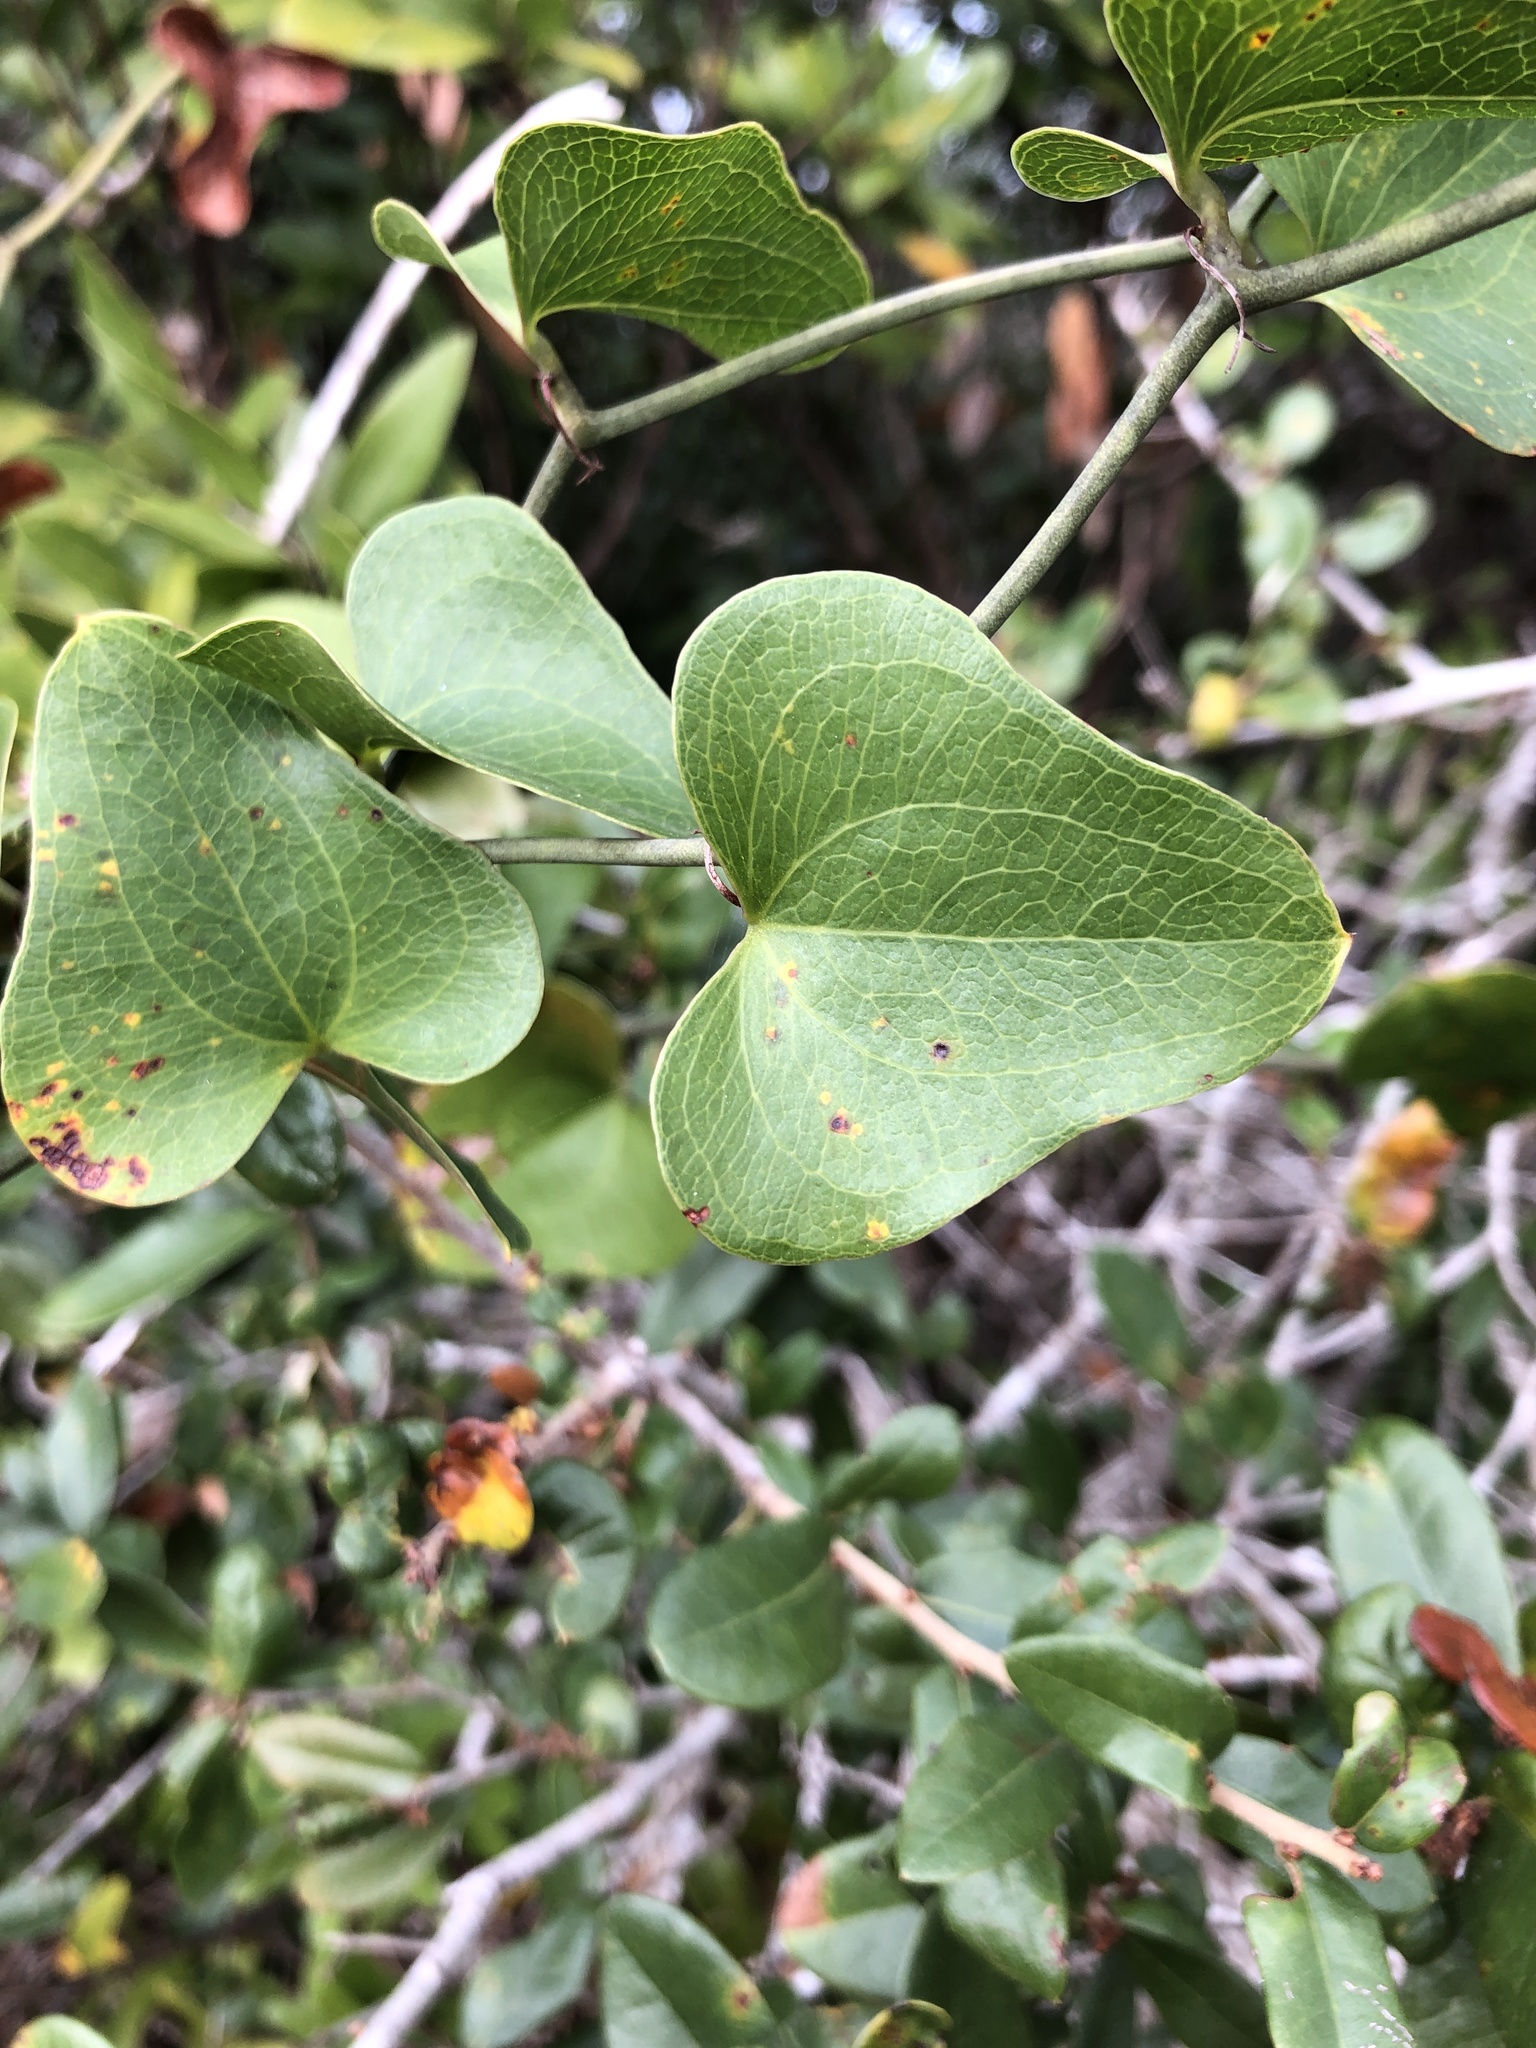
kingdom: Plantae
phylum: Tracheophyta
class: Liliopsida
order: Liliales
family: Smilacaceae
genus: Smilax
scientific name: Smilax bona-nox
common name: Catbrier
